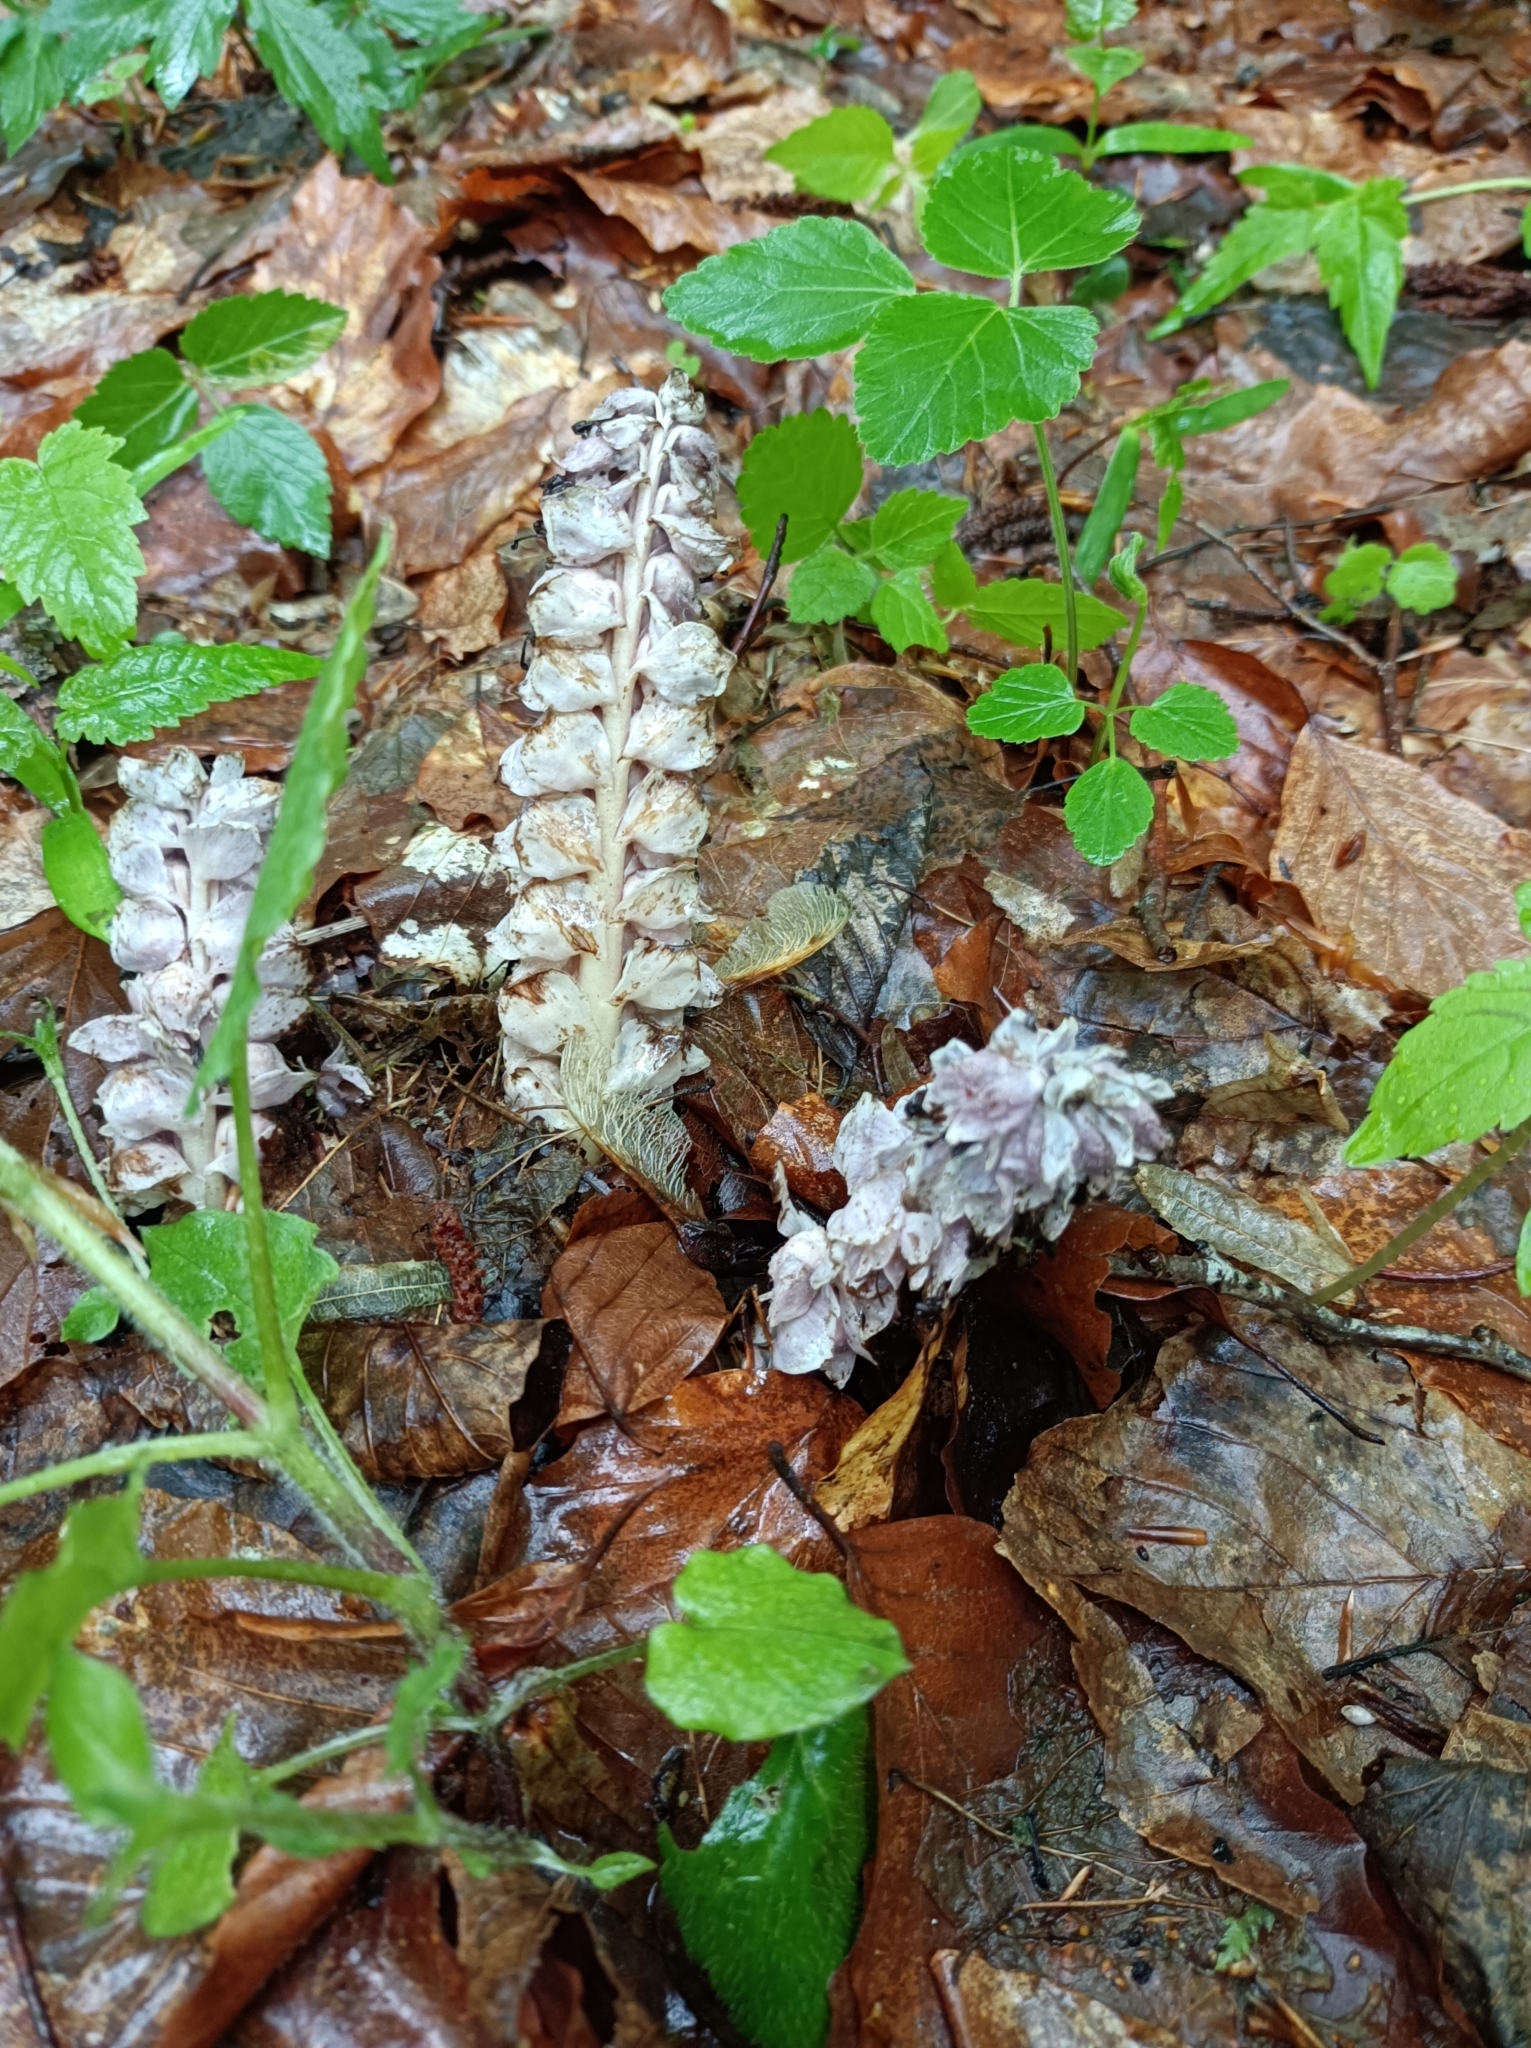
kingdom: Plantae
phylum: Tracheophyta
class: Magnoliopsida
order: Lamiales
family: Orobanchaceae
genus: Lathraea
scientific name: Lathraea squamaria
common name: Toothwort
